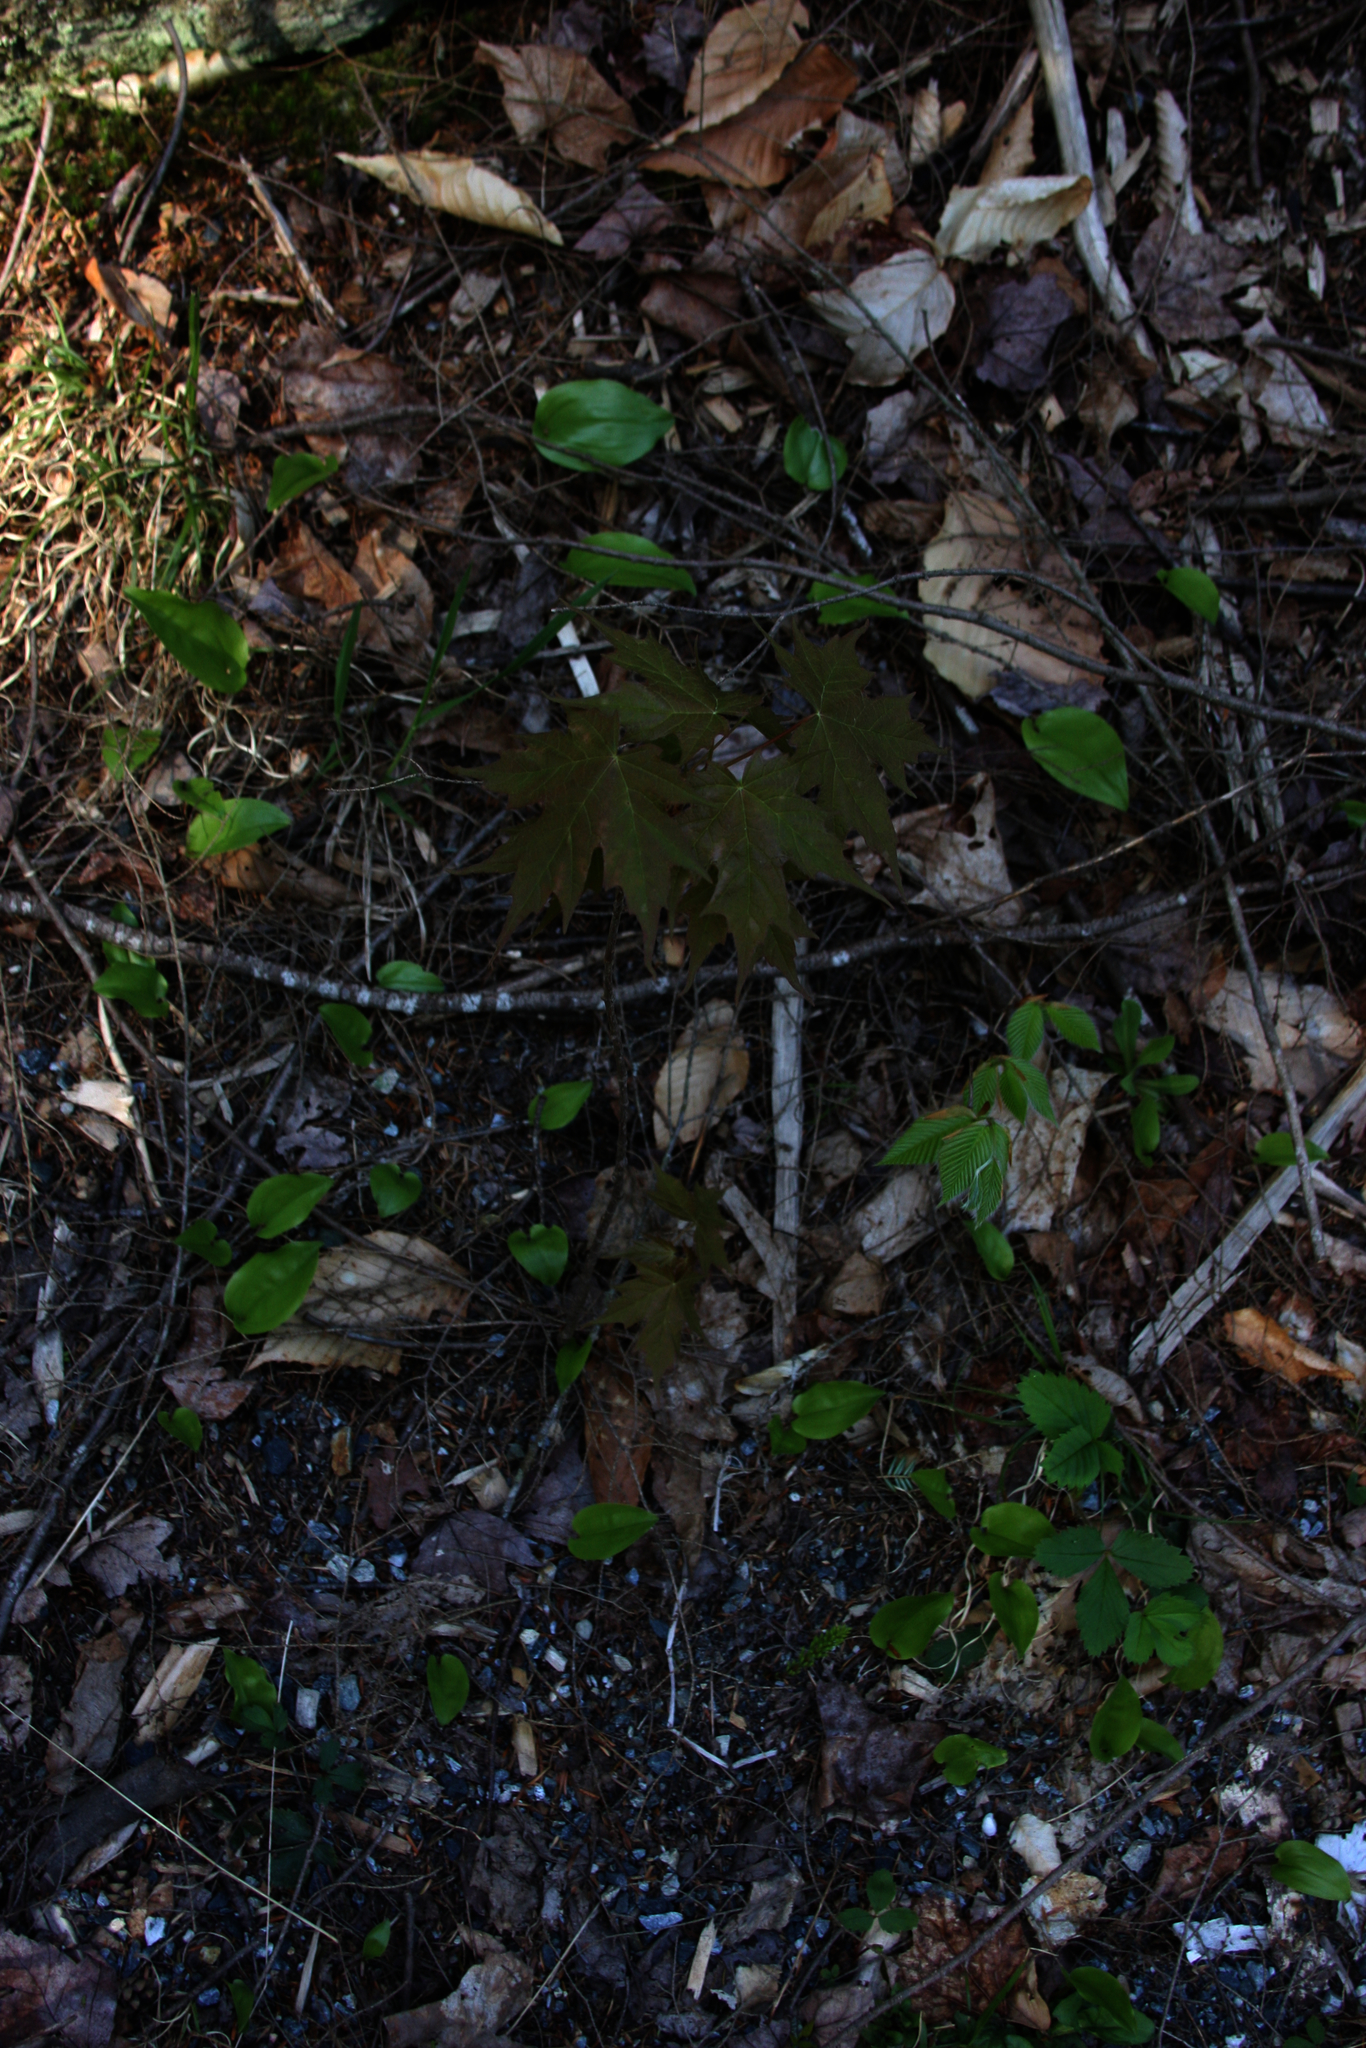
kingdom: Plantae
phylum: Tracheophyta
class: Liliopsida
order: Asparagales
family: Asparagaceae
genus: Maianthemum
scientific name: Maianthemum canadense
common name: False lily-of-the-valley
